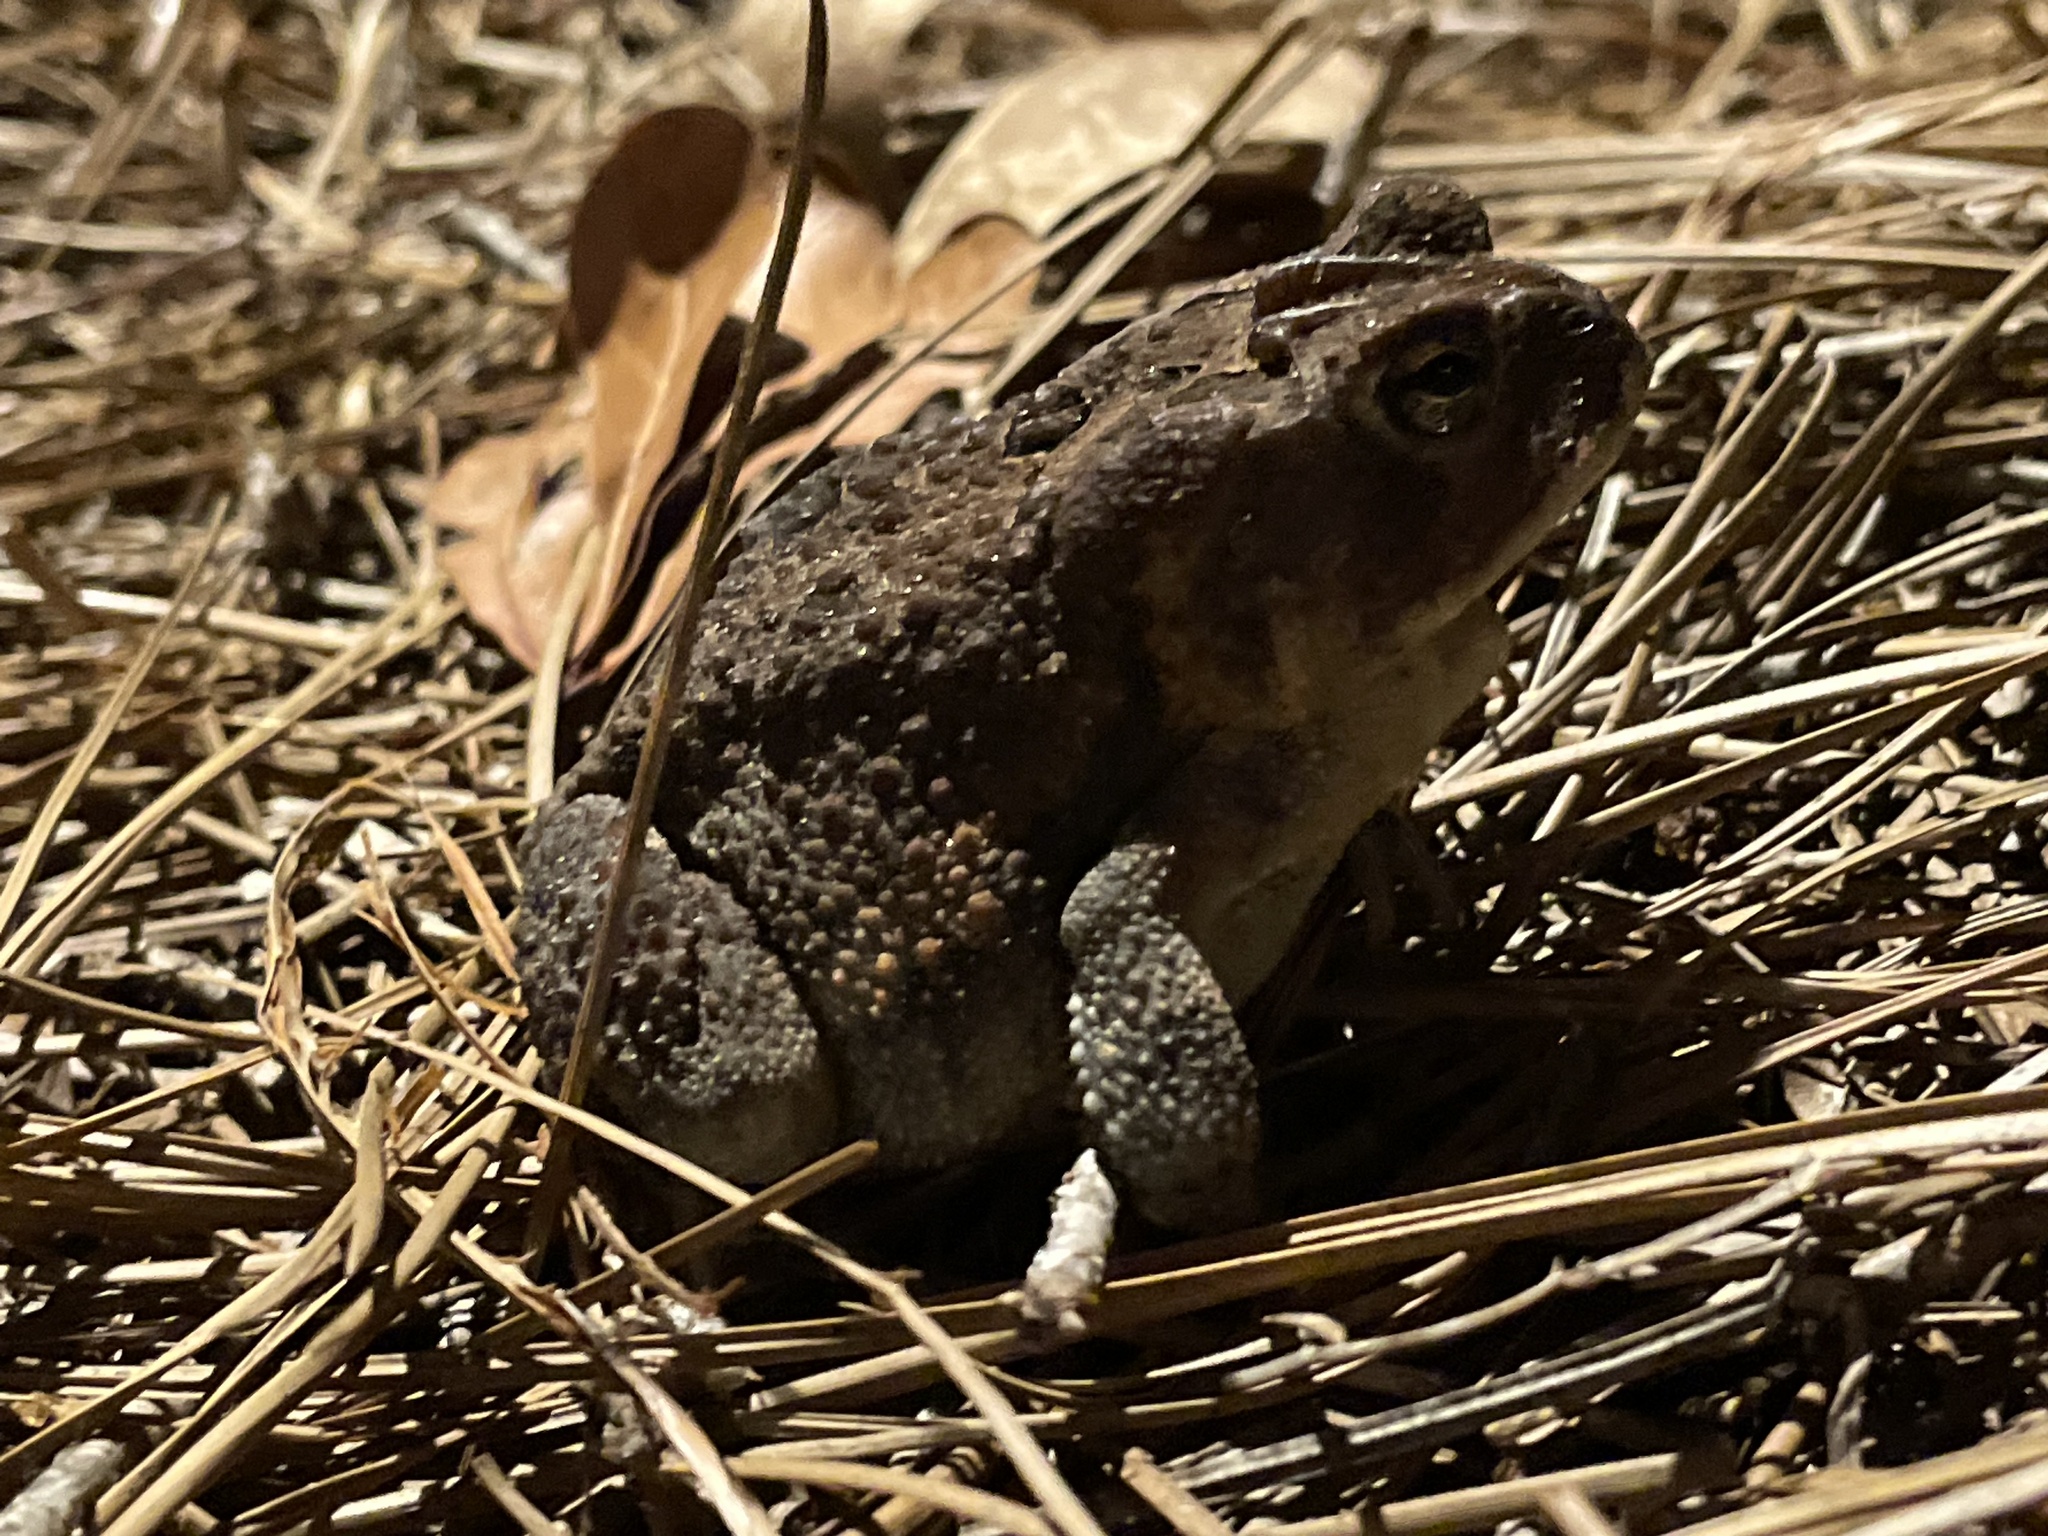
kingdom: Animalia
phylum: Chordata
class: Amphibia
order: Anura
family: Bufonidae
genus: Anaxyrus
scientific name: Anaxyrus terrestris
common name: Southern toad
